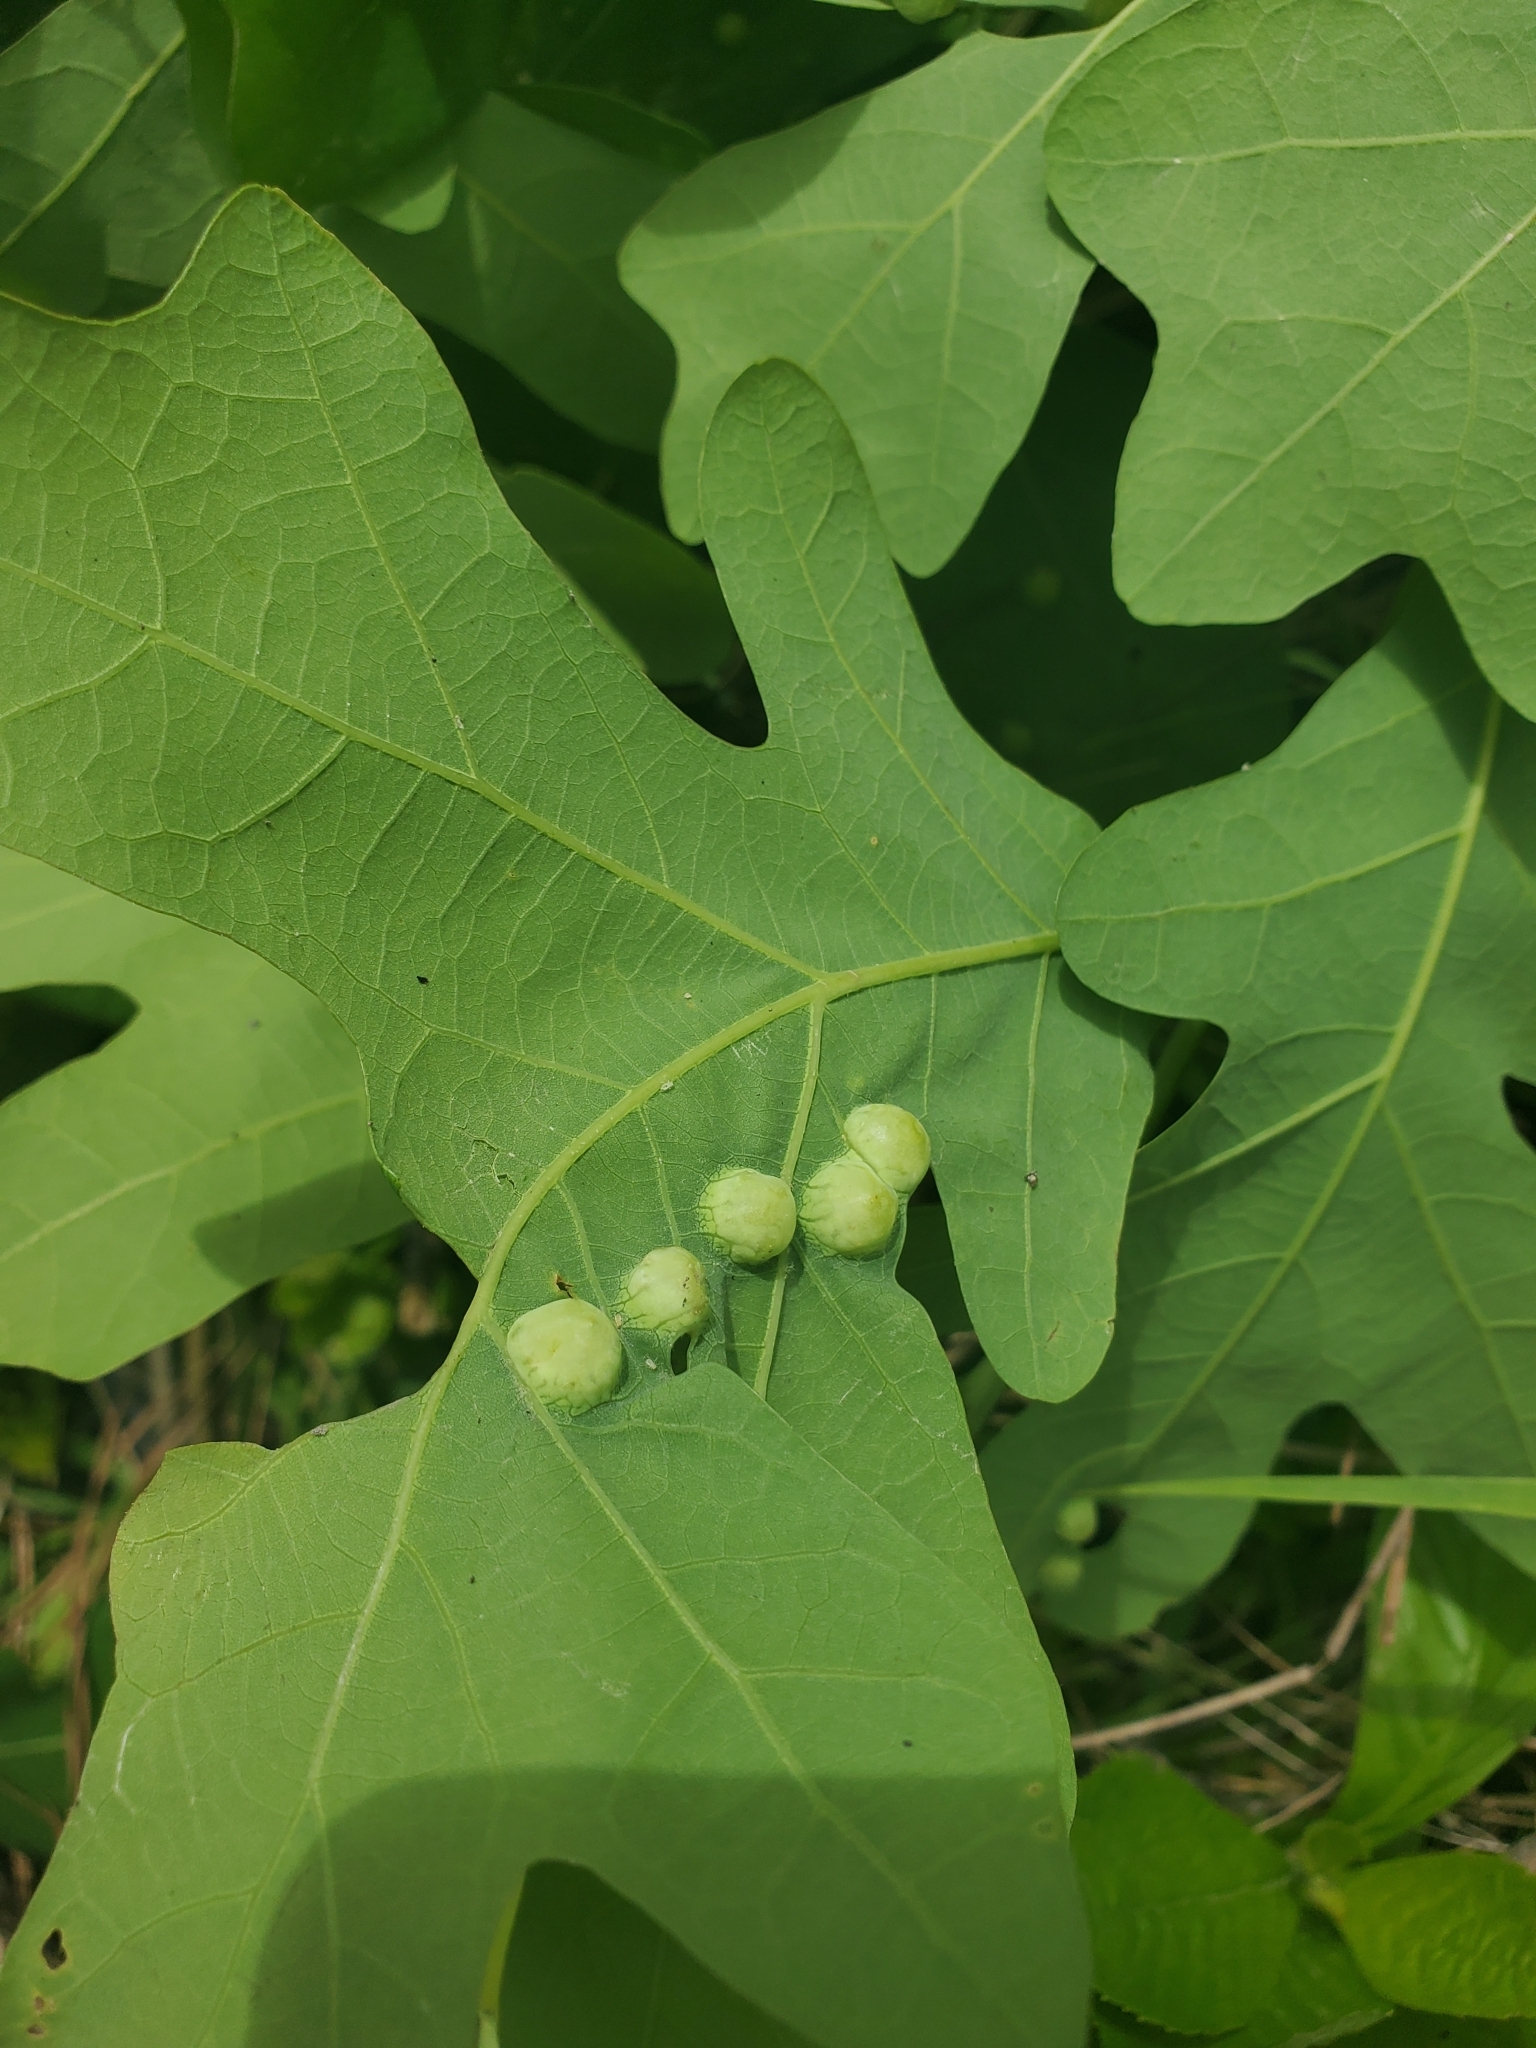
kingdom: Animalia
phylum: Arthropoda
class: Insecta
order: Hymenoptera
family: Cynipidae
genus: Callirhytis
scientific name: Callirhytis
